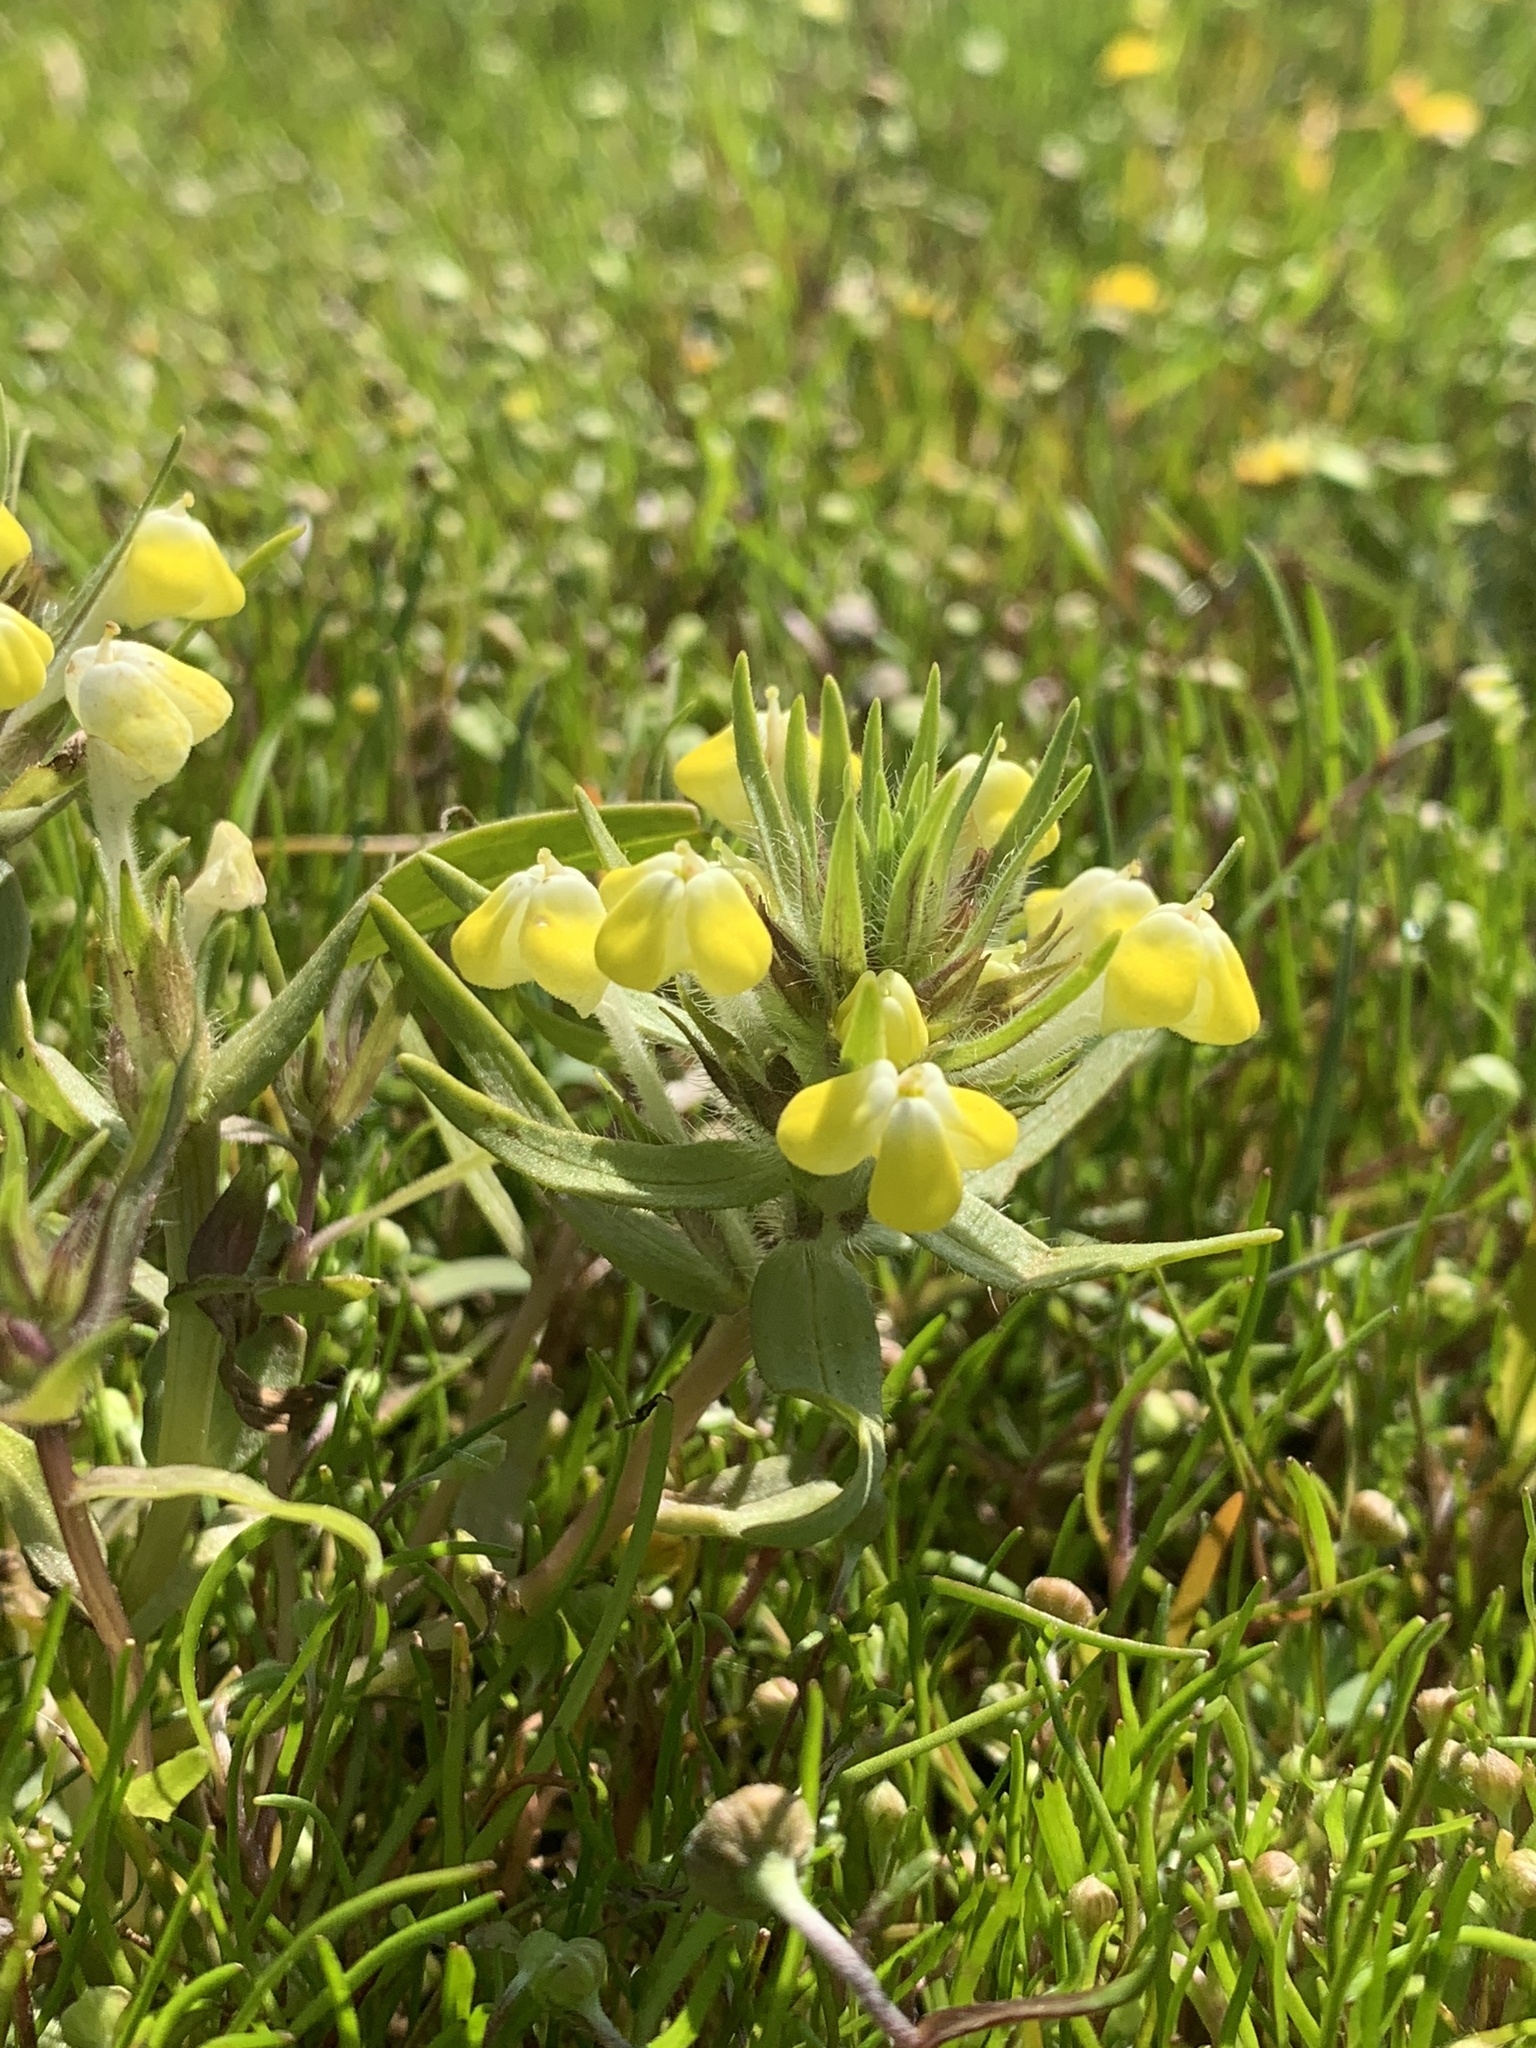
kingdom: Plantae
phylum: Tracheophyta
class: Magnoliopsida
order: Lamiales
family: Orobanchaceae
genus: Castilleja
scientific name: Castilleja campestris
